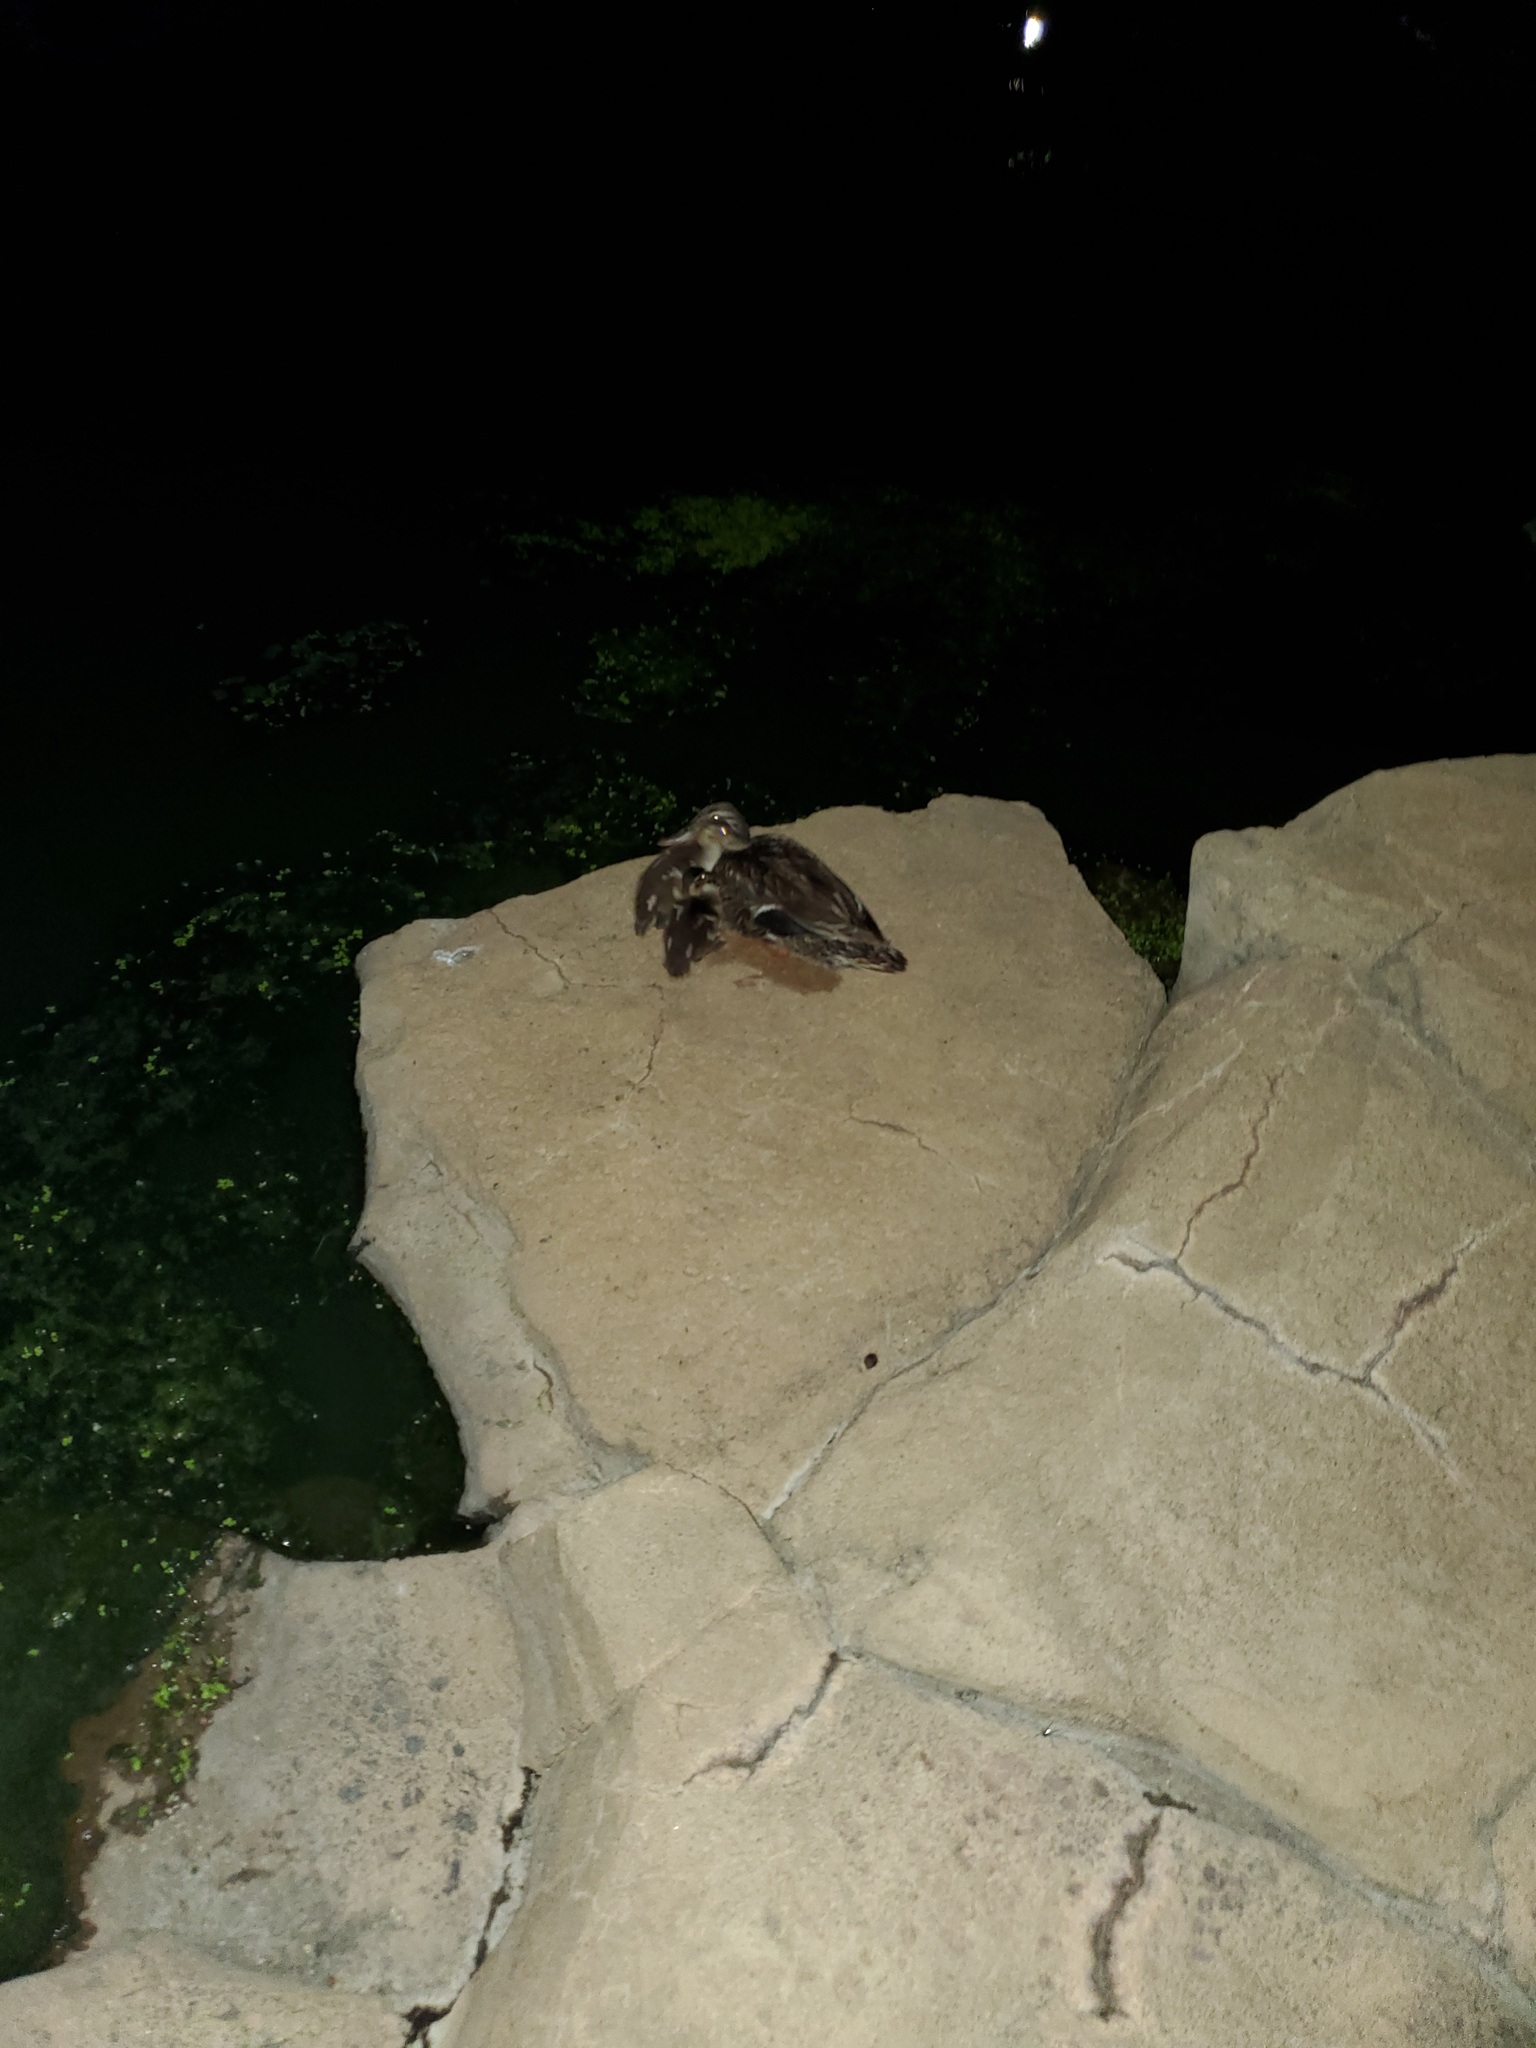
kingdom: Animalia
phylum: Chordata
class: Aves
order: Anseriformes
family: Anatidae
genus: Anas
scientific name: Anas platyrhynchos
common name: Mallard
